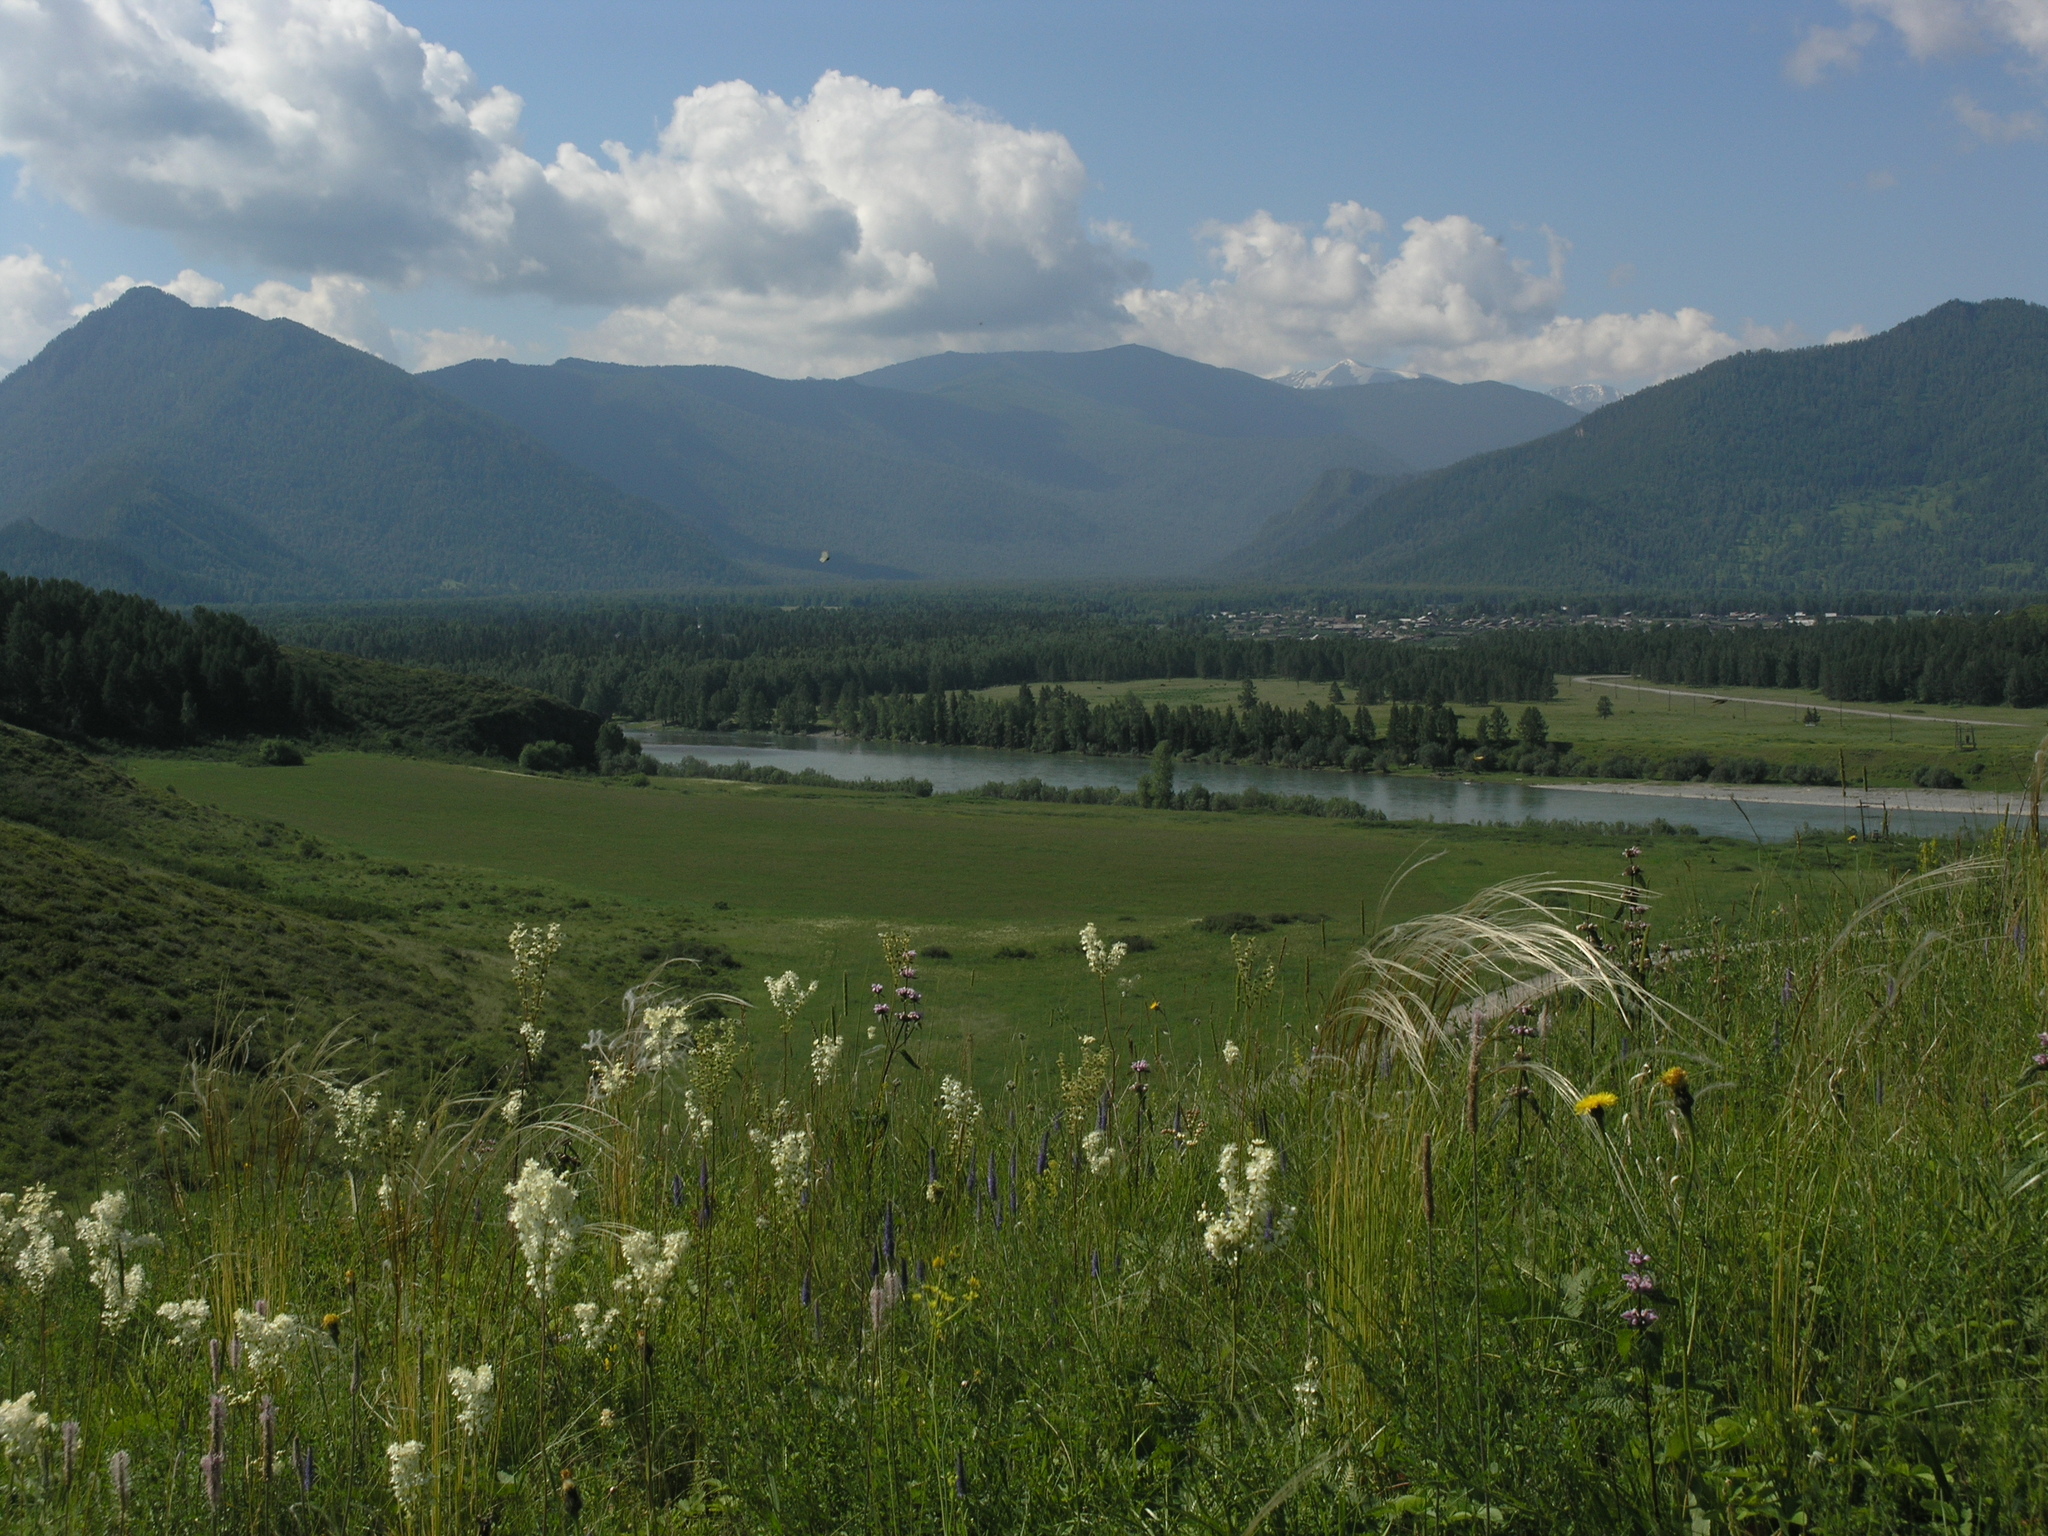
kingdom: Plantae
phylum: Tracheophyta
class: Magnoliopsida
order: Rosales
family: Rosaceae
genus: Filipendula
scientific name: Filipendula vulgaris
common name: Dropwort
